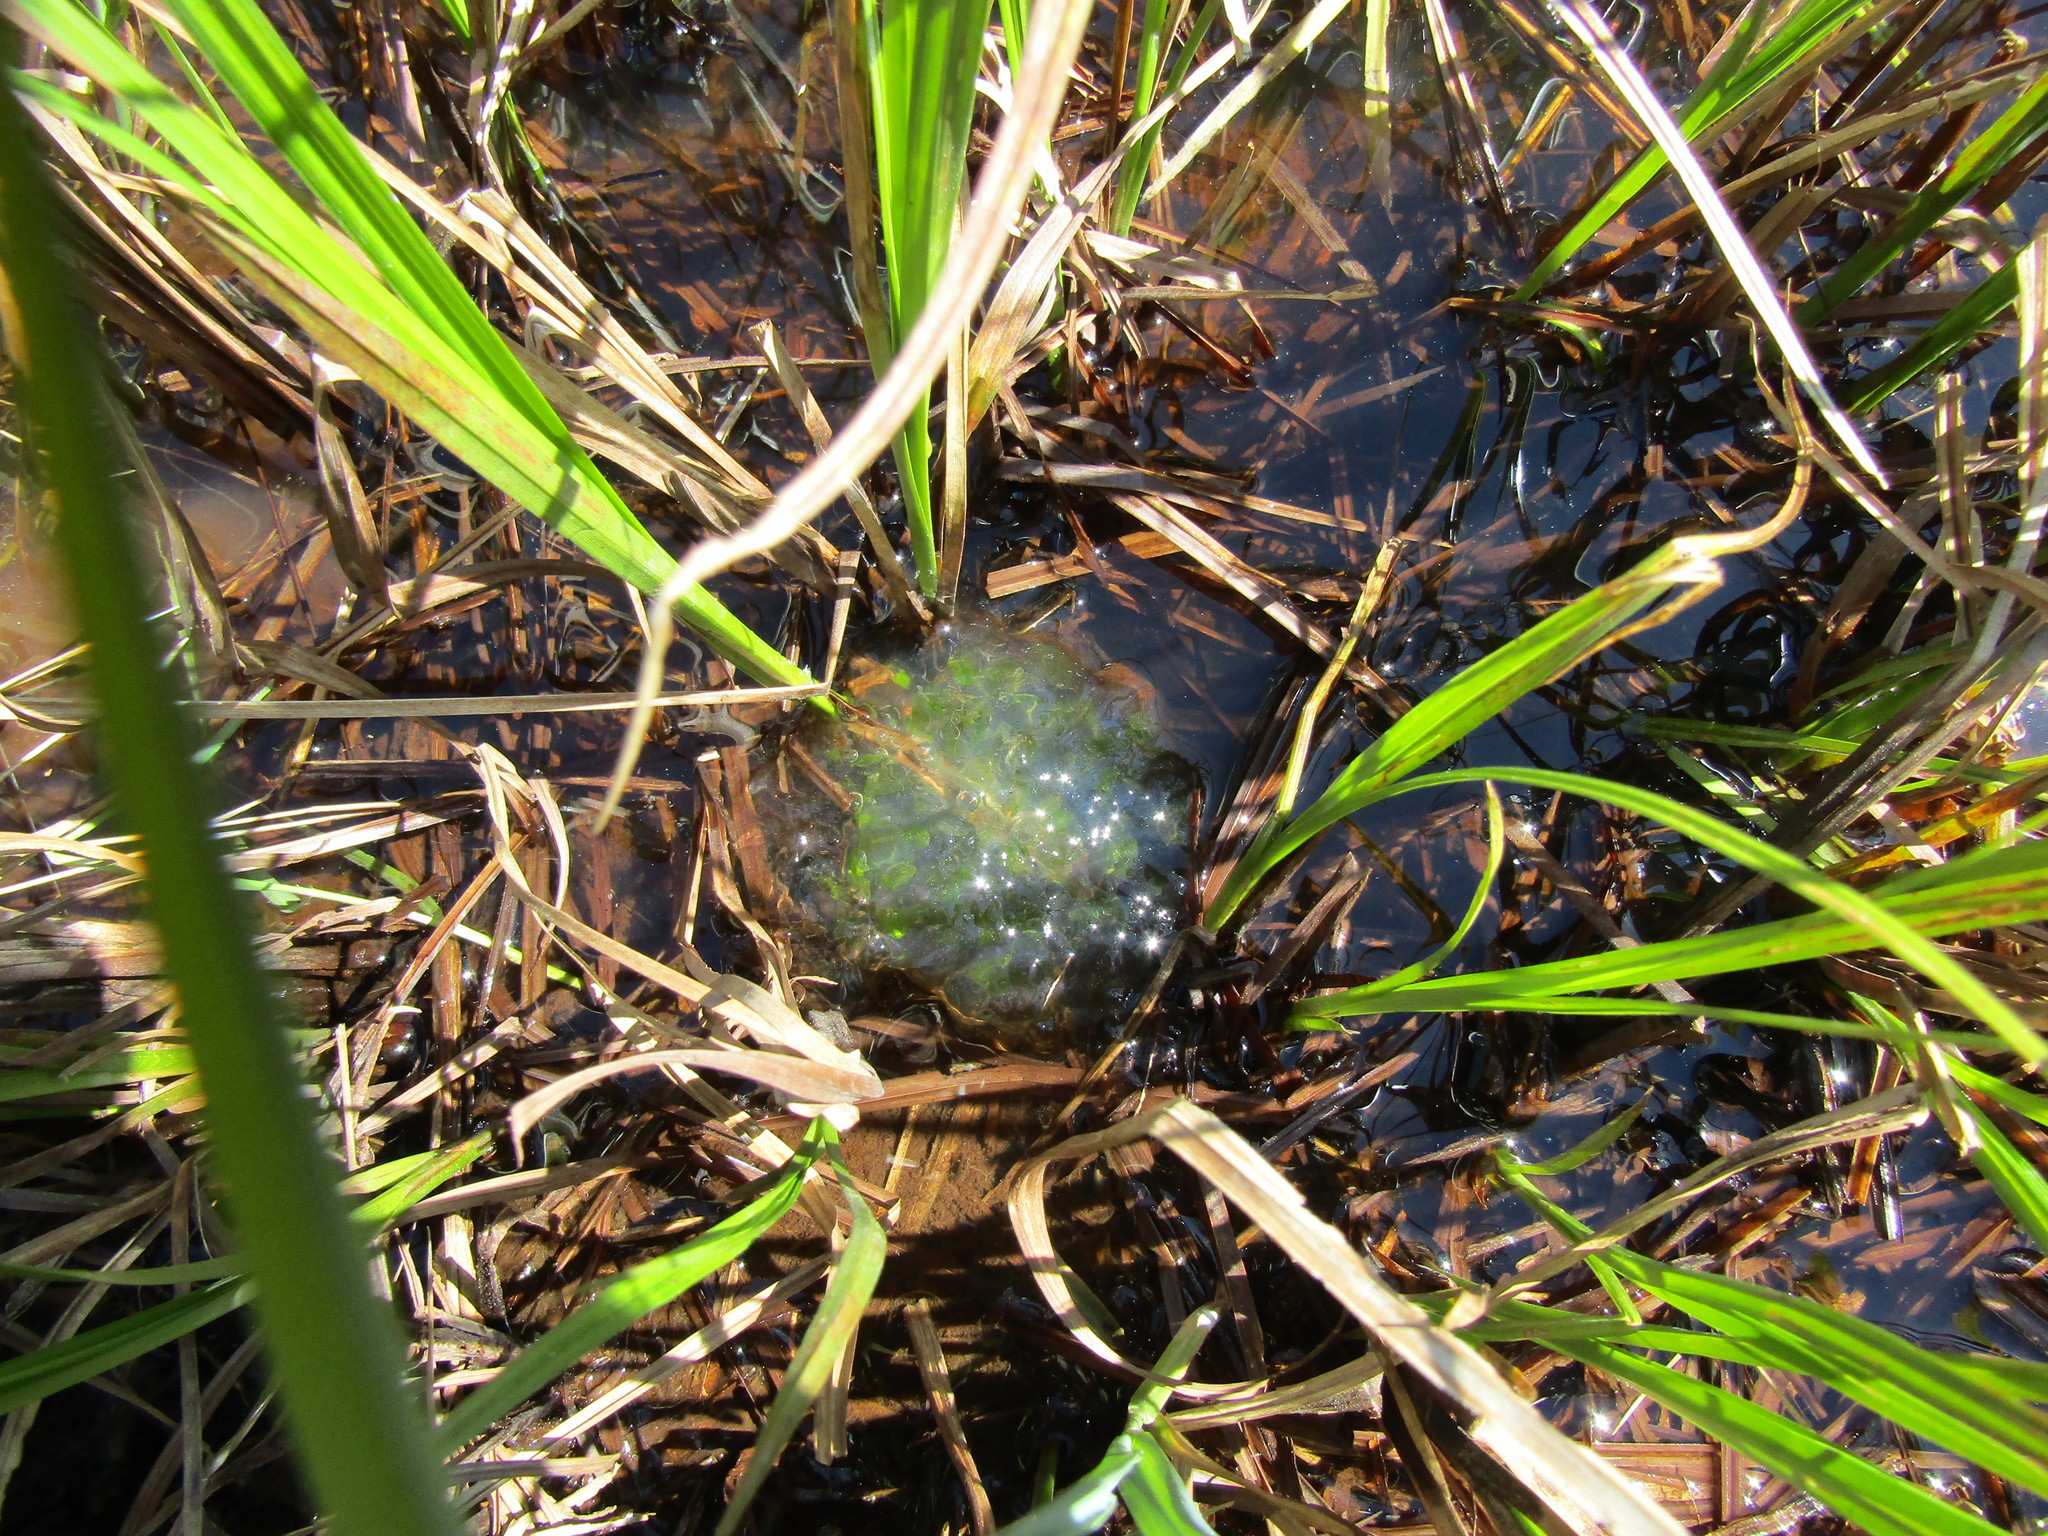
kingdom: Animalia
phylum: Chordata
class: Amphibia
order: Caudata
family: Ambystomatidae
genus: Ambystoma
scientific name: Ambystoma gracile
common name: Northwestern salamander
